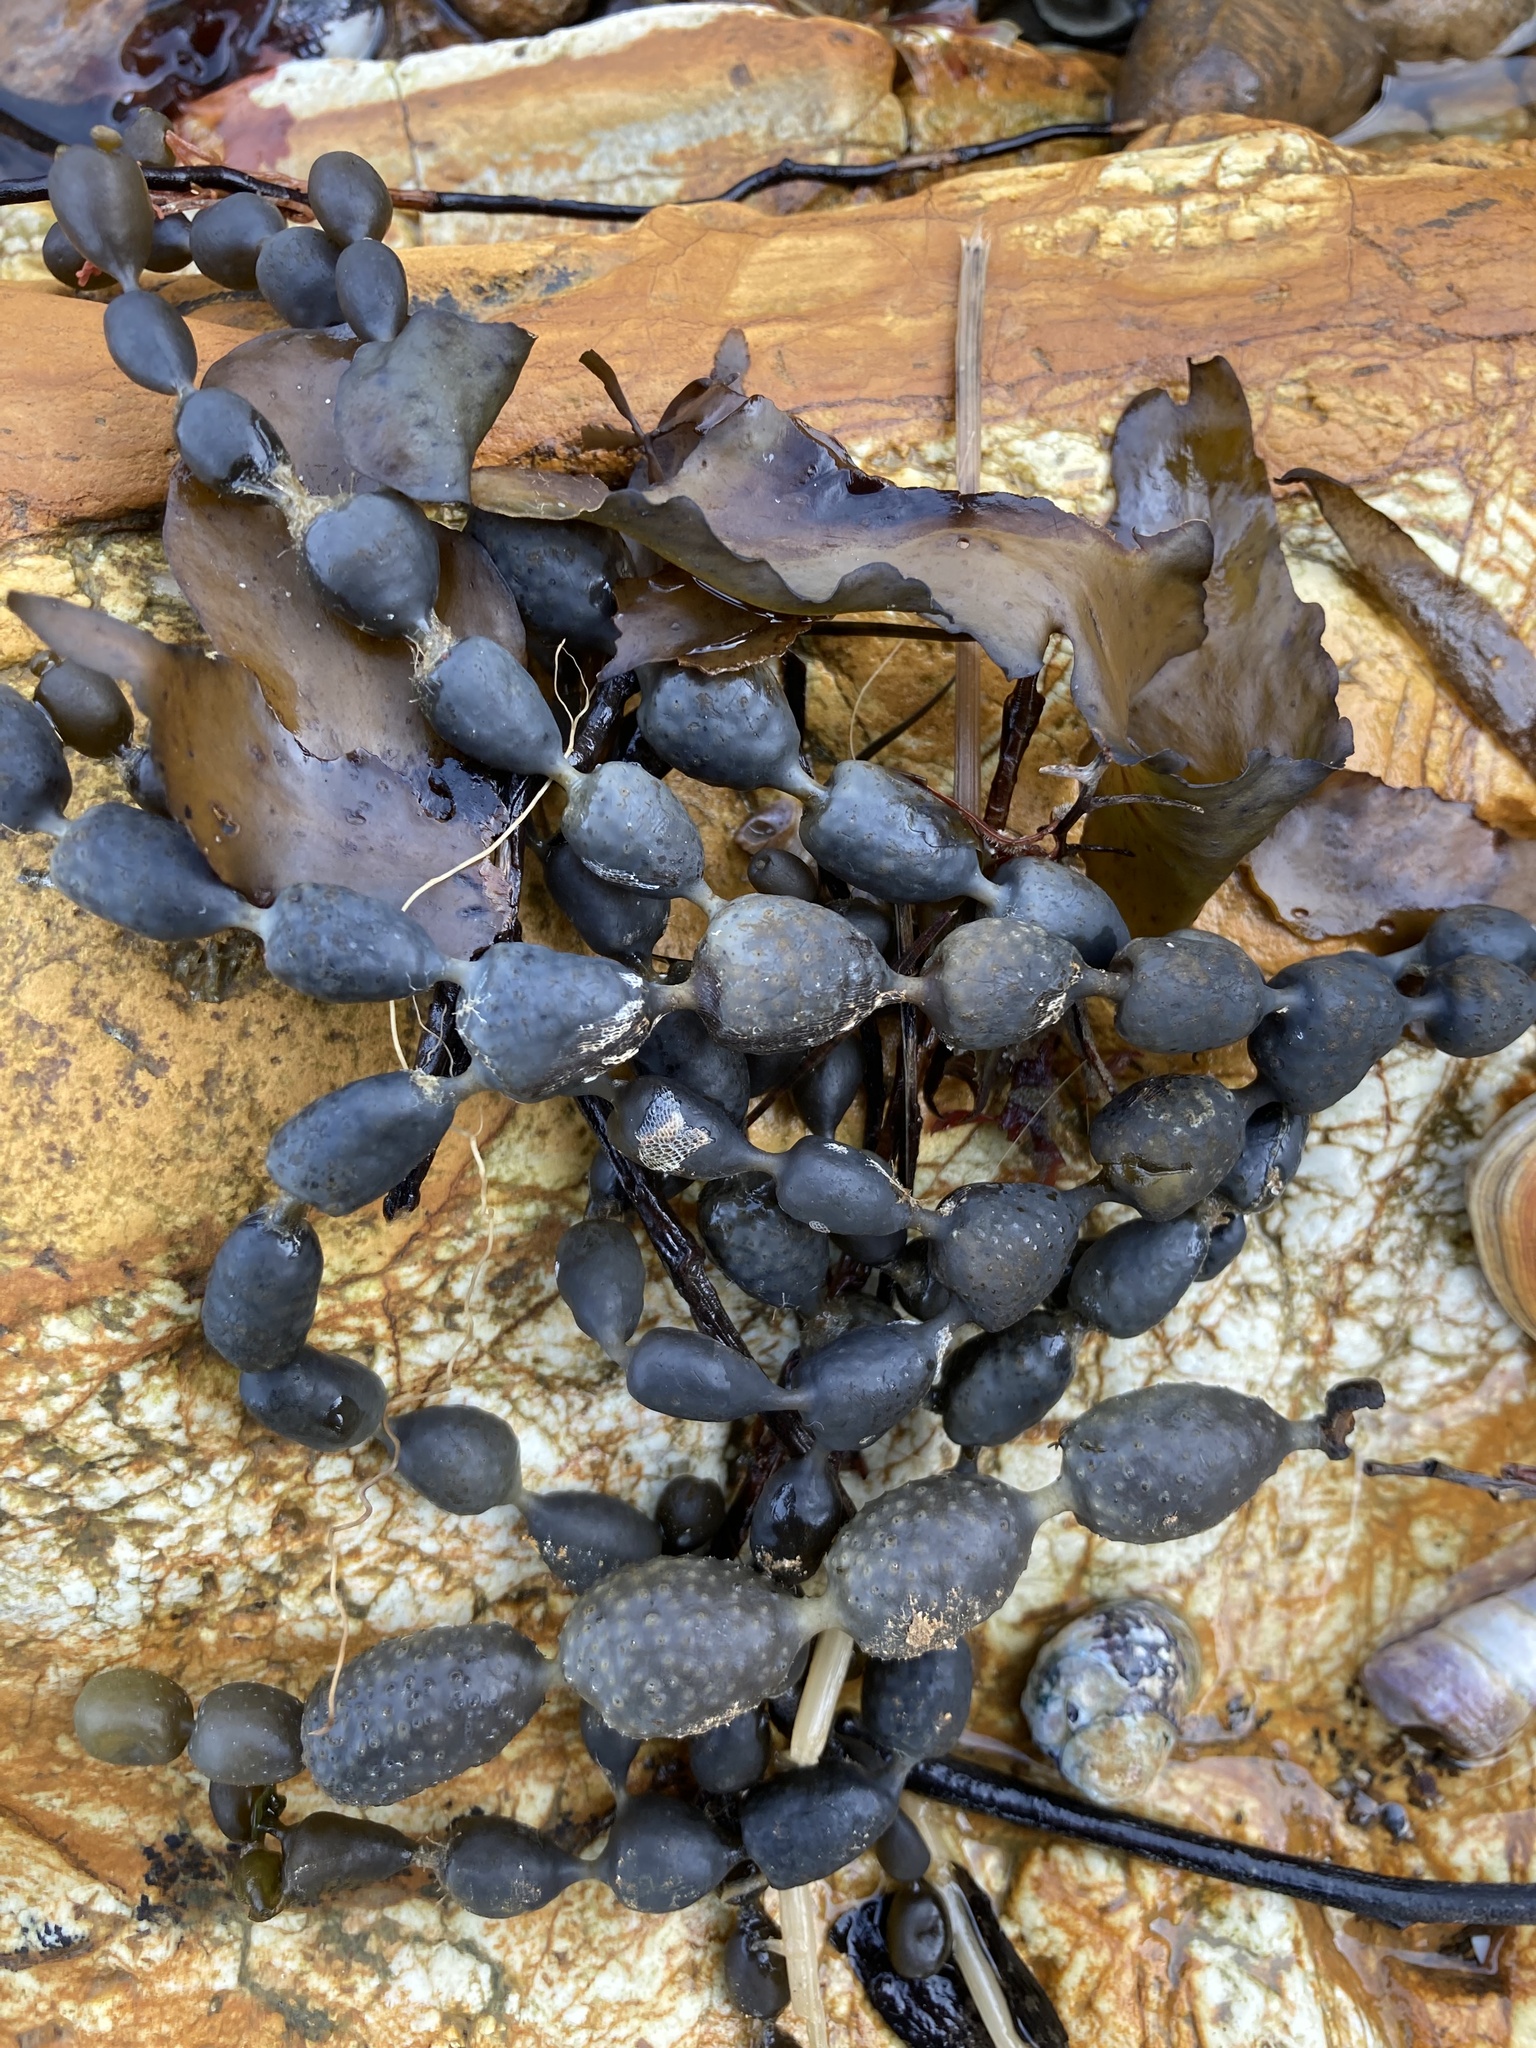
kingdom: Chromista
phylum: Ochrophyta
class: Phaeophyceae
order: Fucales
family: Hormosiraceae
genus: Hormosira
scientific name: Hormosira banksii
